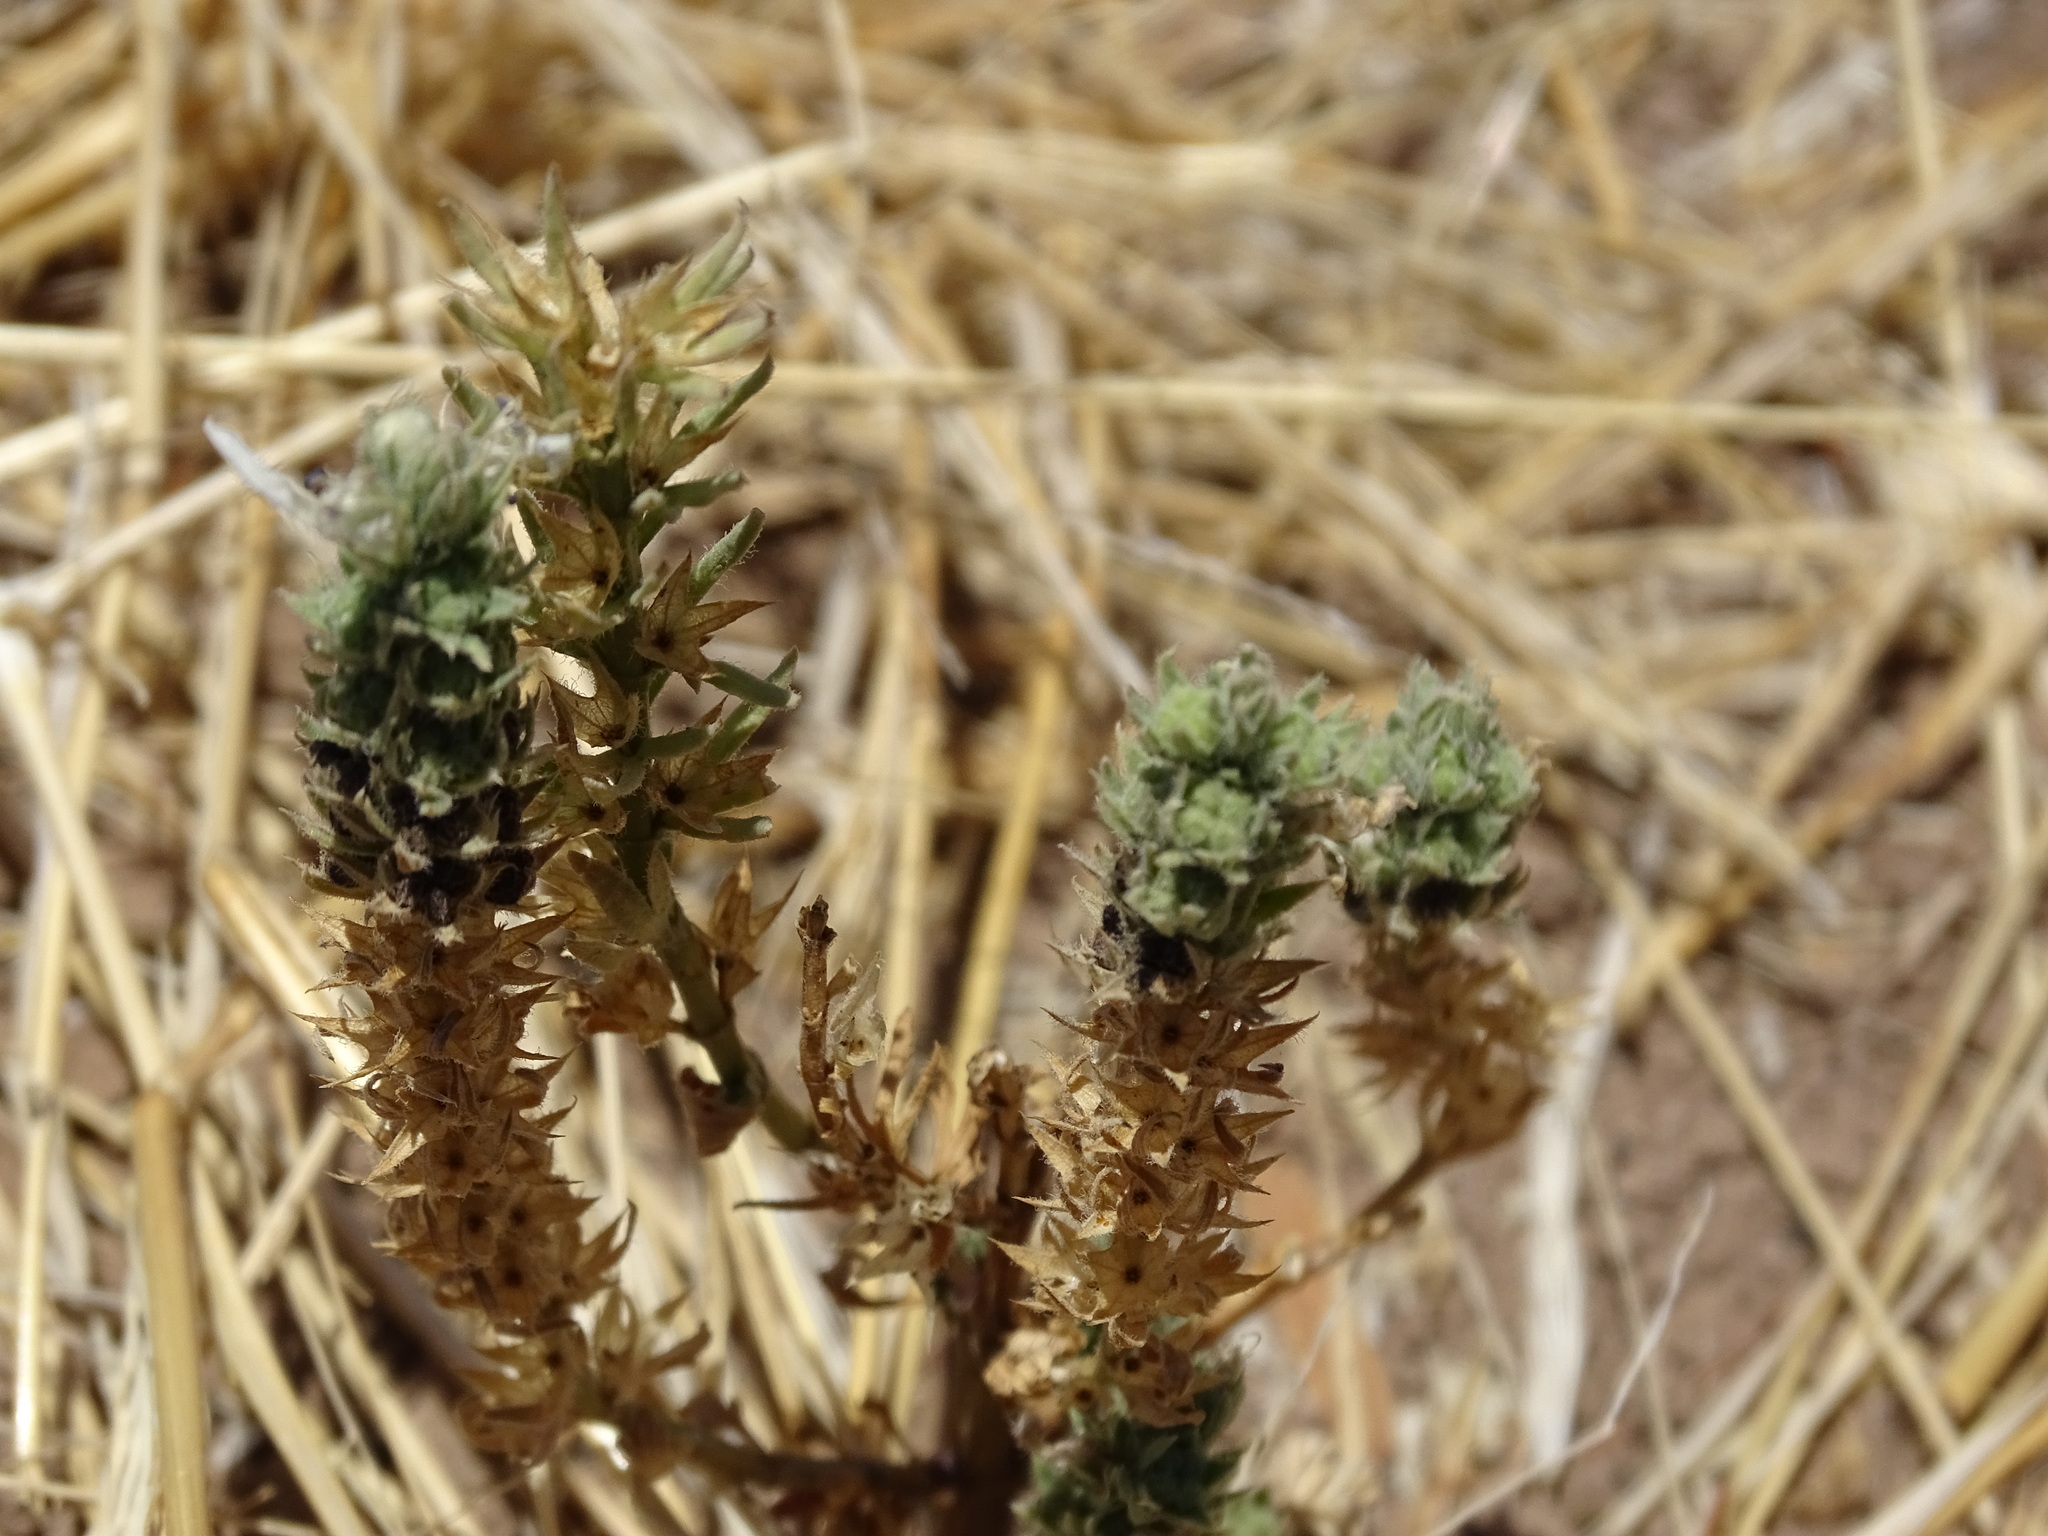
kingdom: Plantae
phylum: Tracheophyta
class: Magnoliopsida
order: Lamiales
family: Lamiaceae
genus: Teucrium
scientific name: Teucrium cubense
